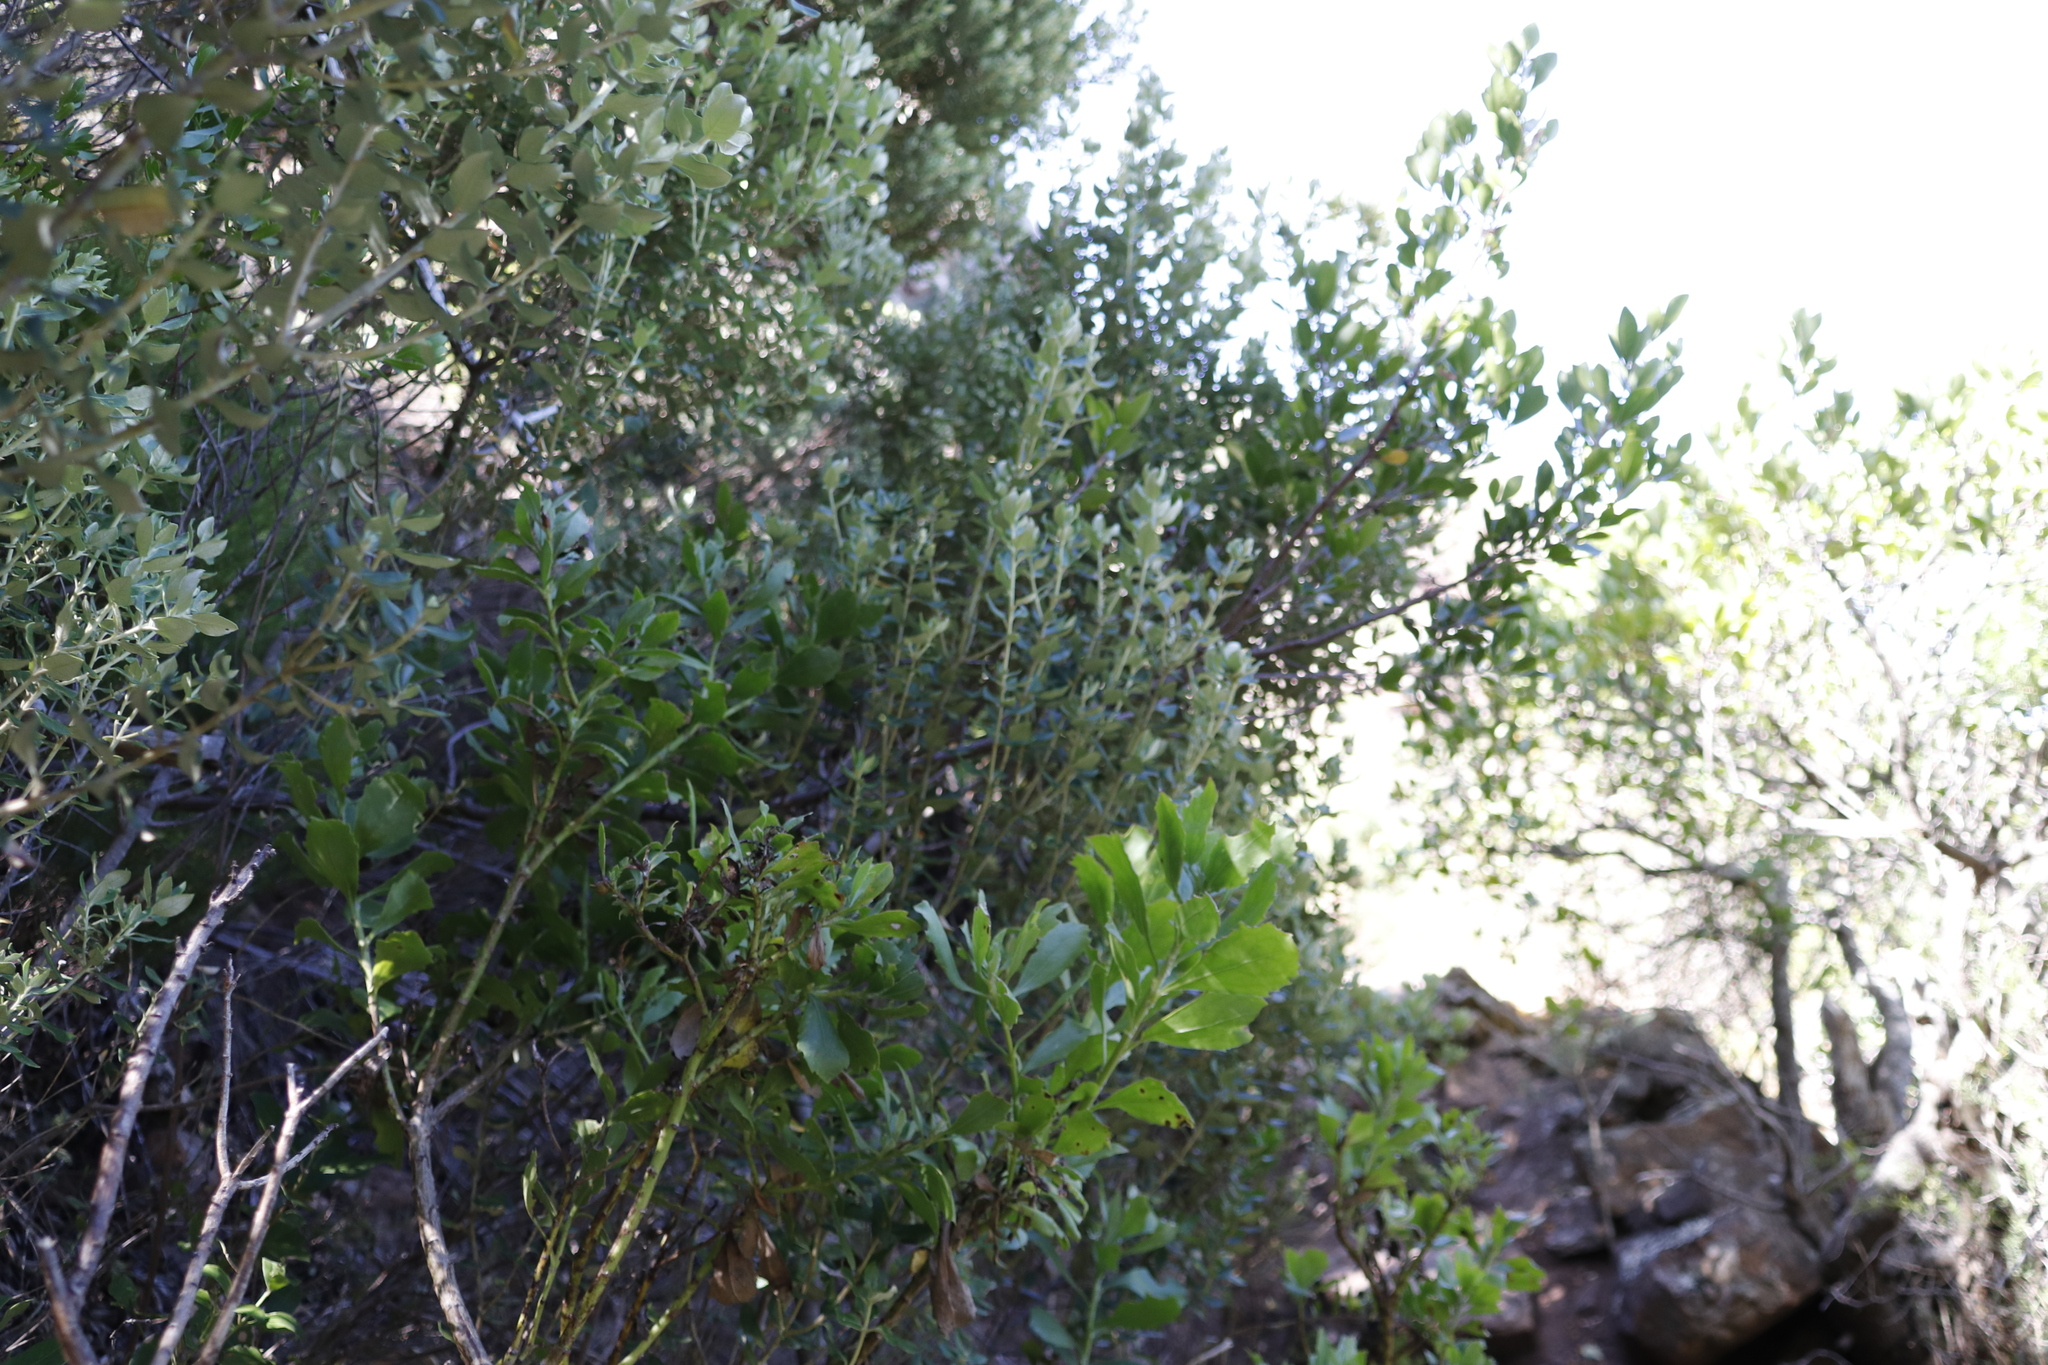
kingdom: Plantae
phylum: Tracheophyta
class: Magnoliopsida
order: Rosales
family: Rhamnaceae
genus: Phylica
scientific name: Phylica buxifolia
